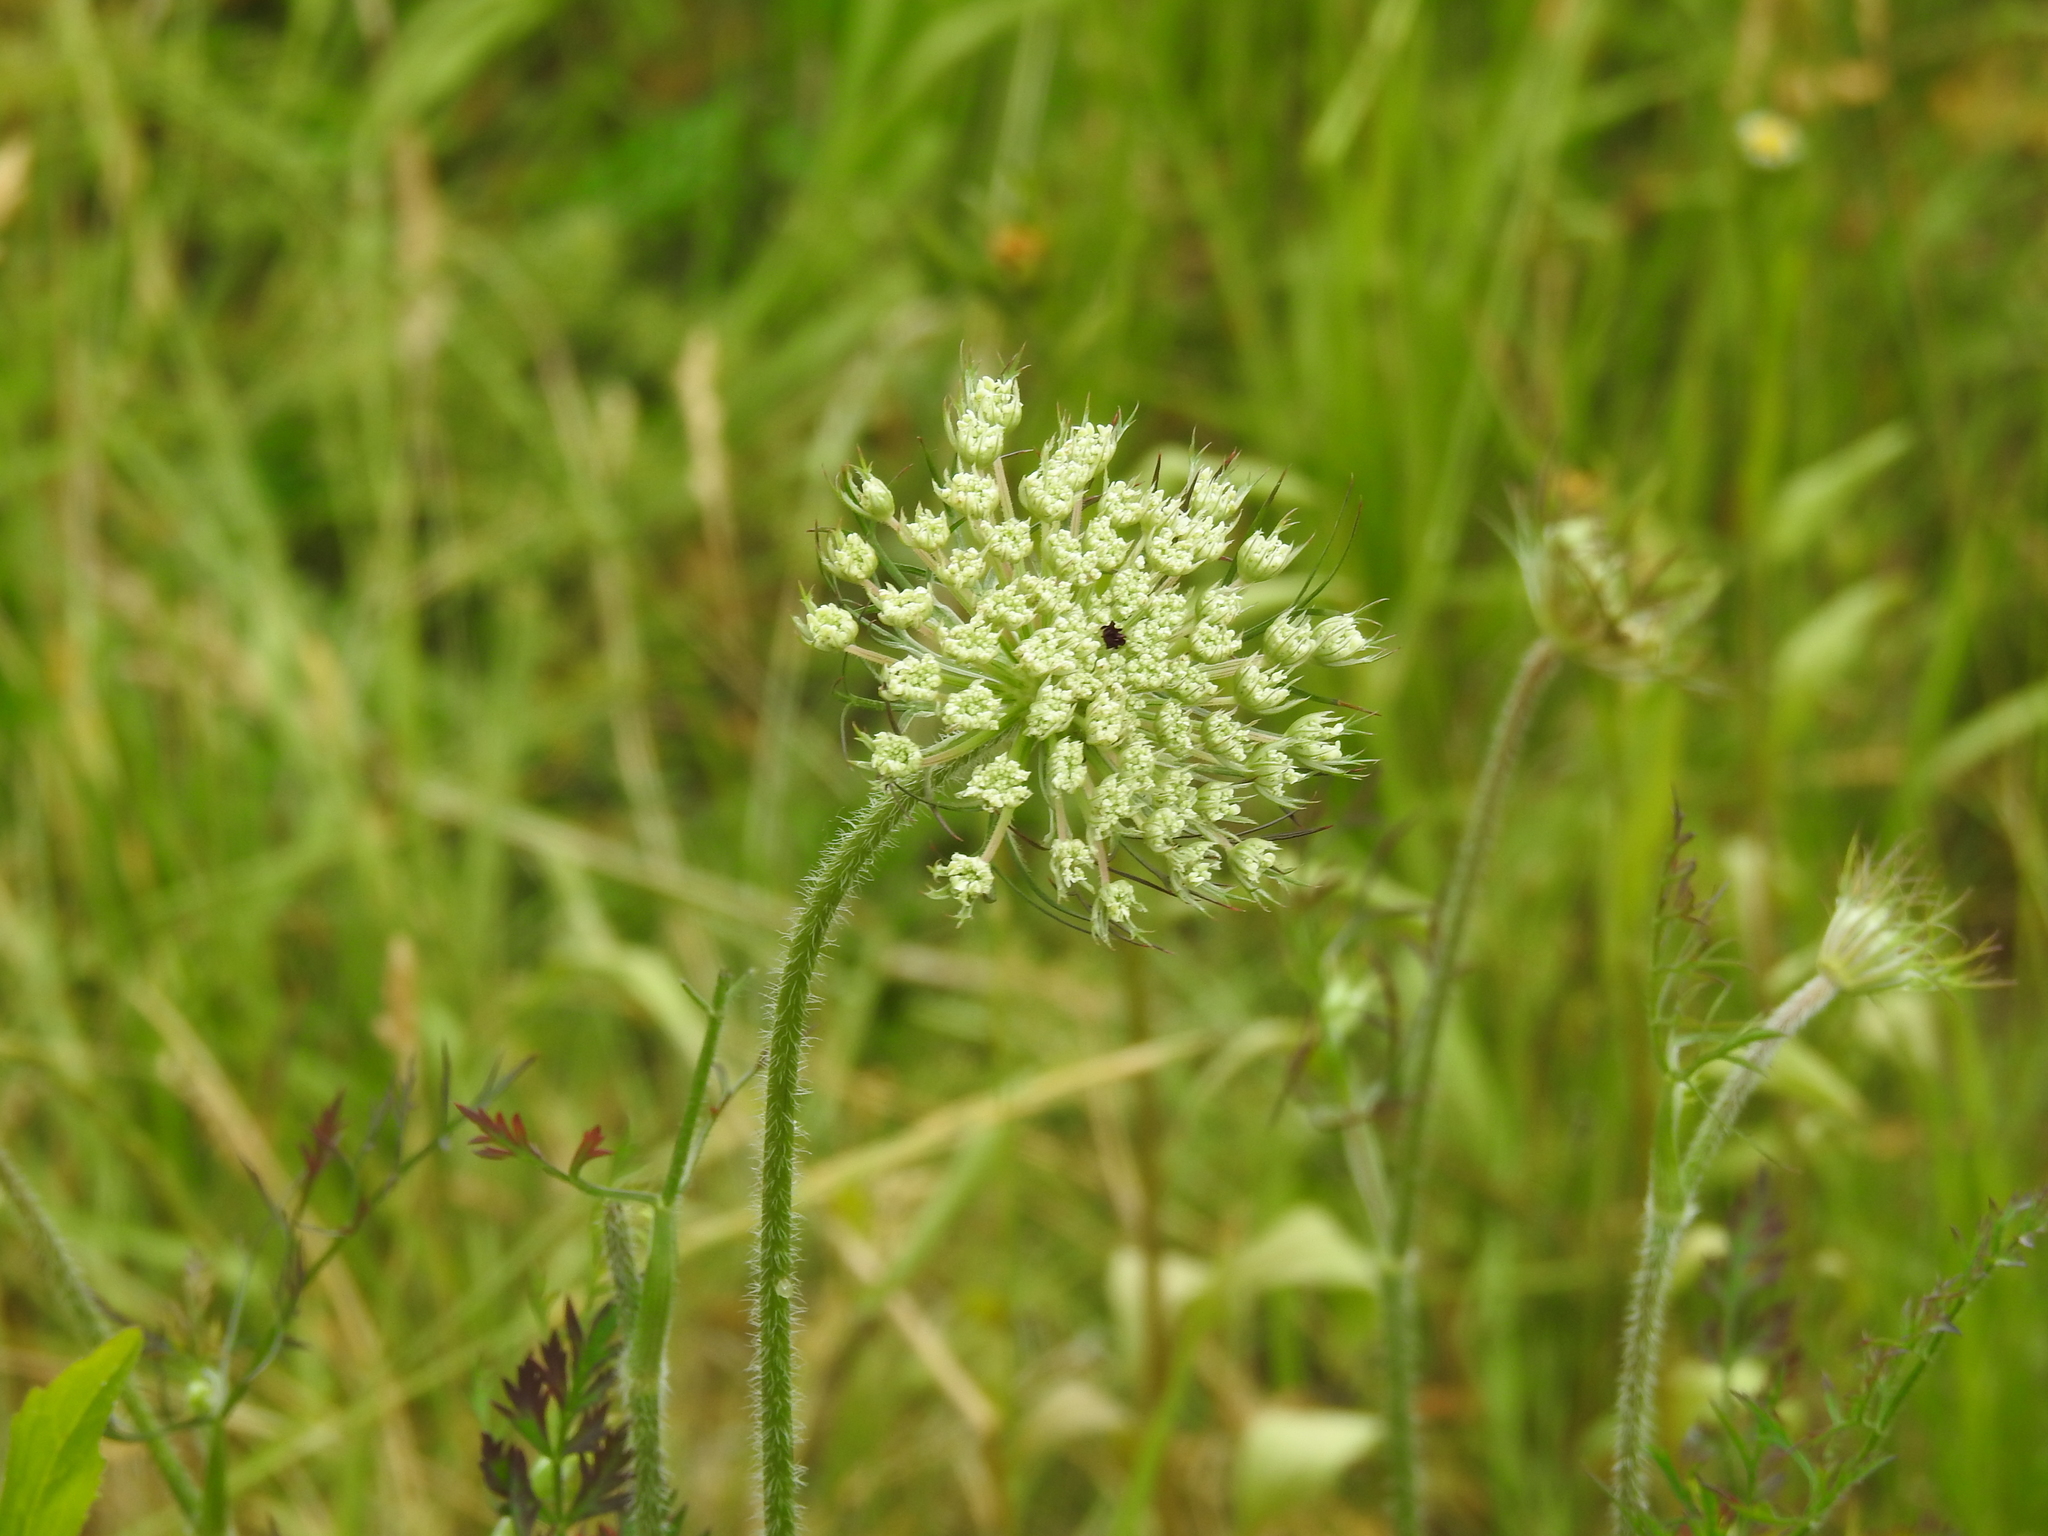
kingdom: Plantae
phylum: Tracheophyta
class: Magnoliopsida
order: Apiales
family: Apiaceae
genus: Daucus
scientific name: Daucus carota
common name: Wild carrot
